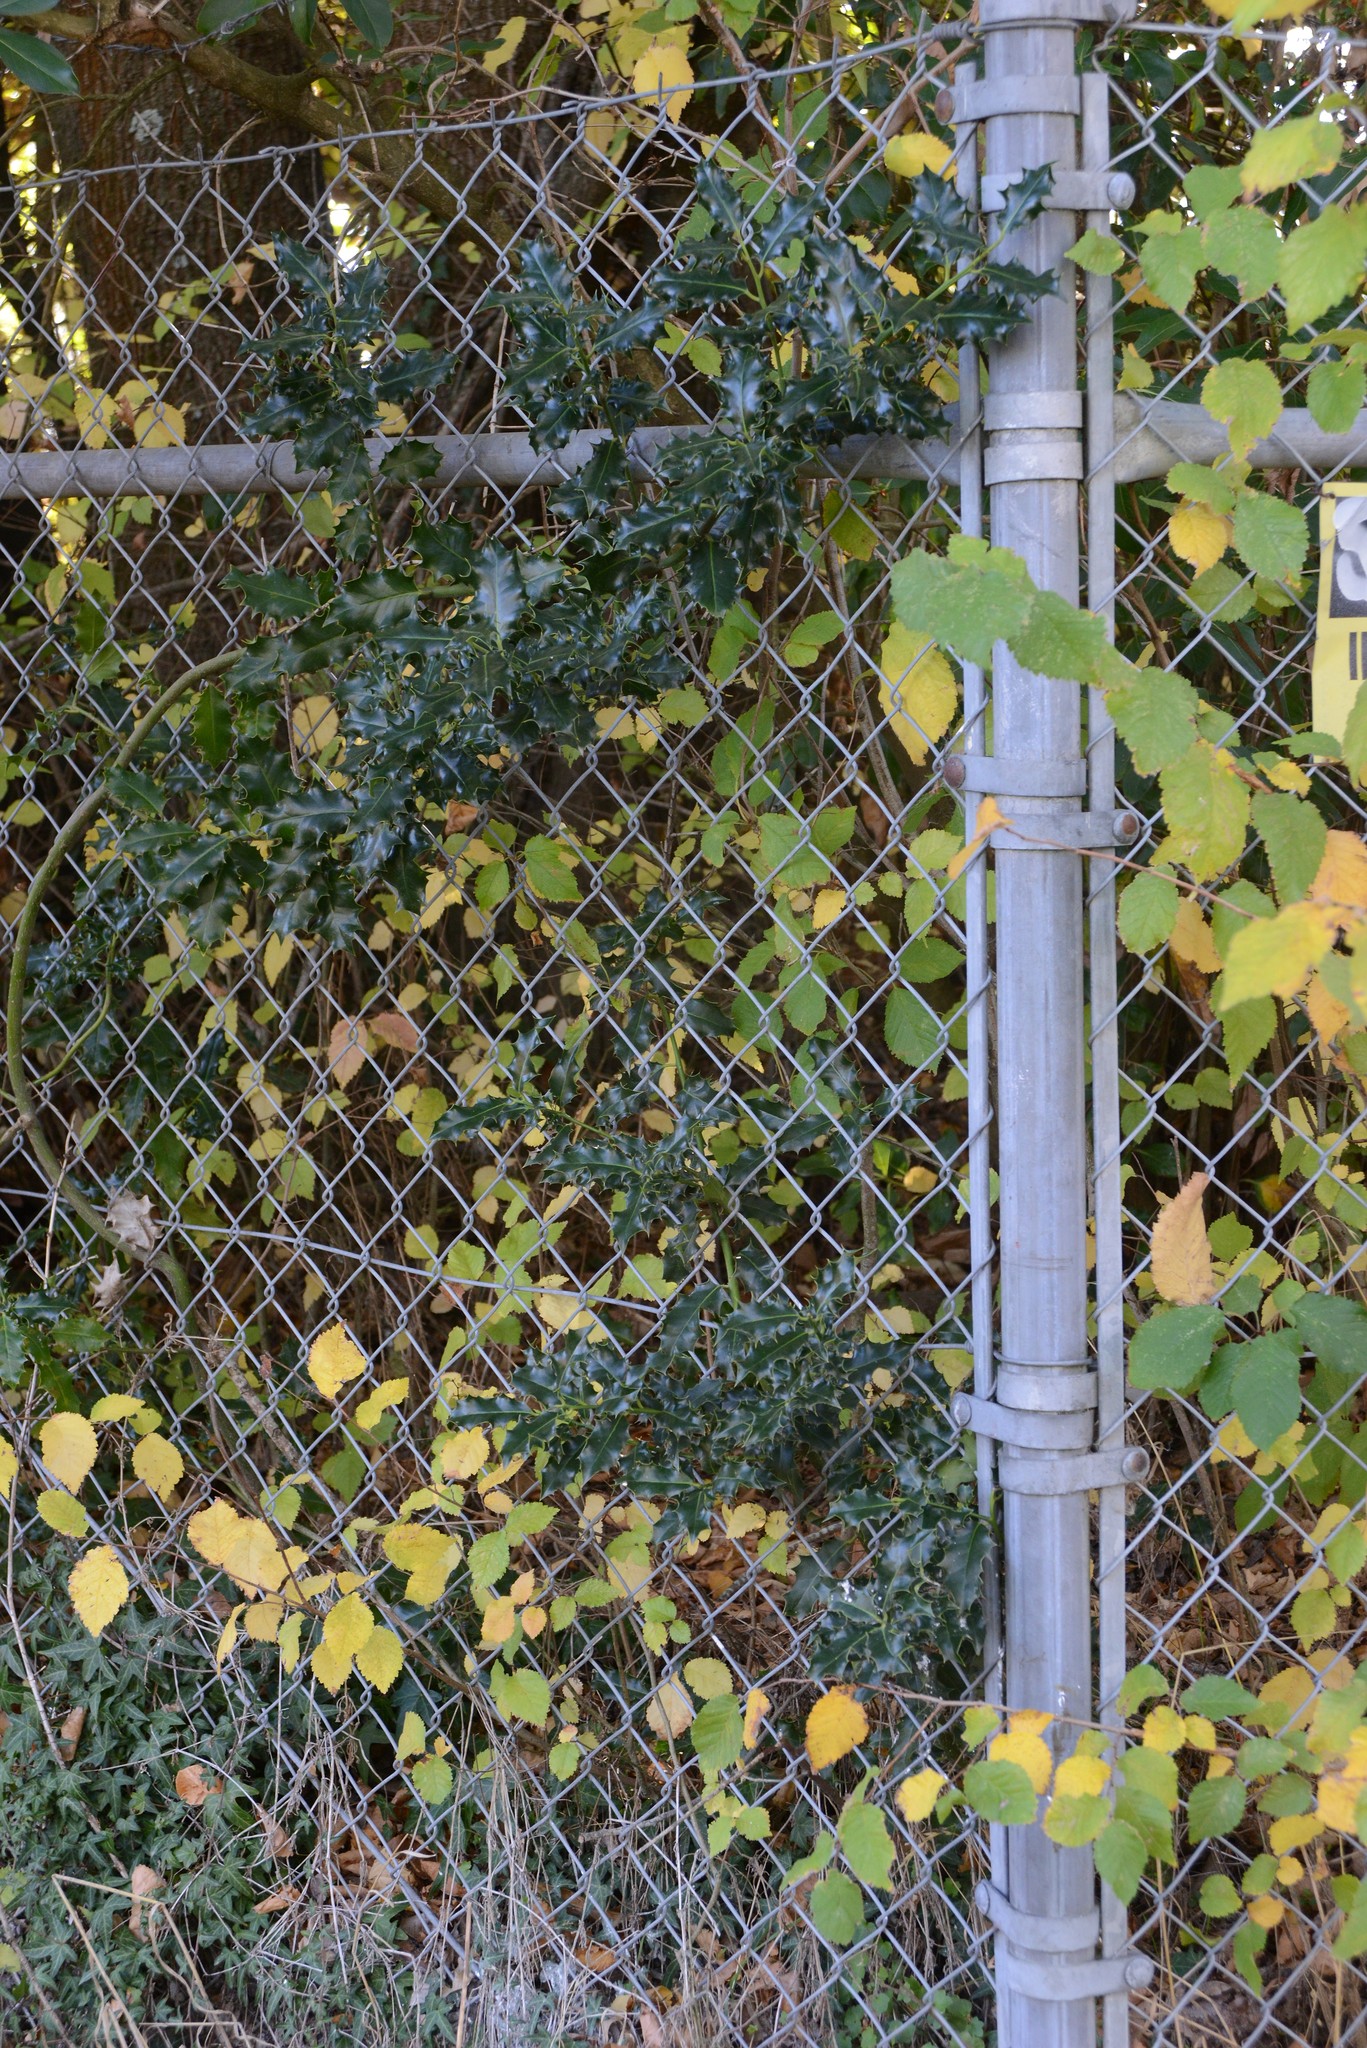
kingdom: Plantae
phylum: Tracheophyta
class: Magnoliopsida
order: Aquifoliales
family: Aquifoliaceae
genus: Ilex
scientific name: Ilex aquifolium
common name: English holly
